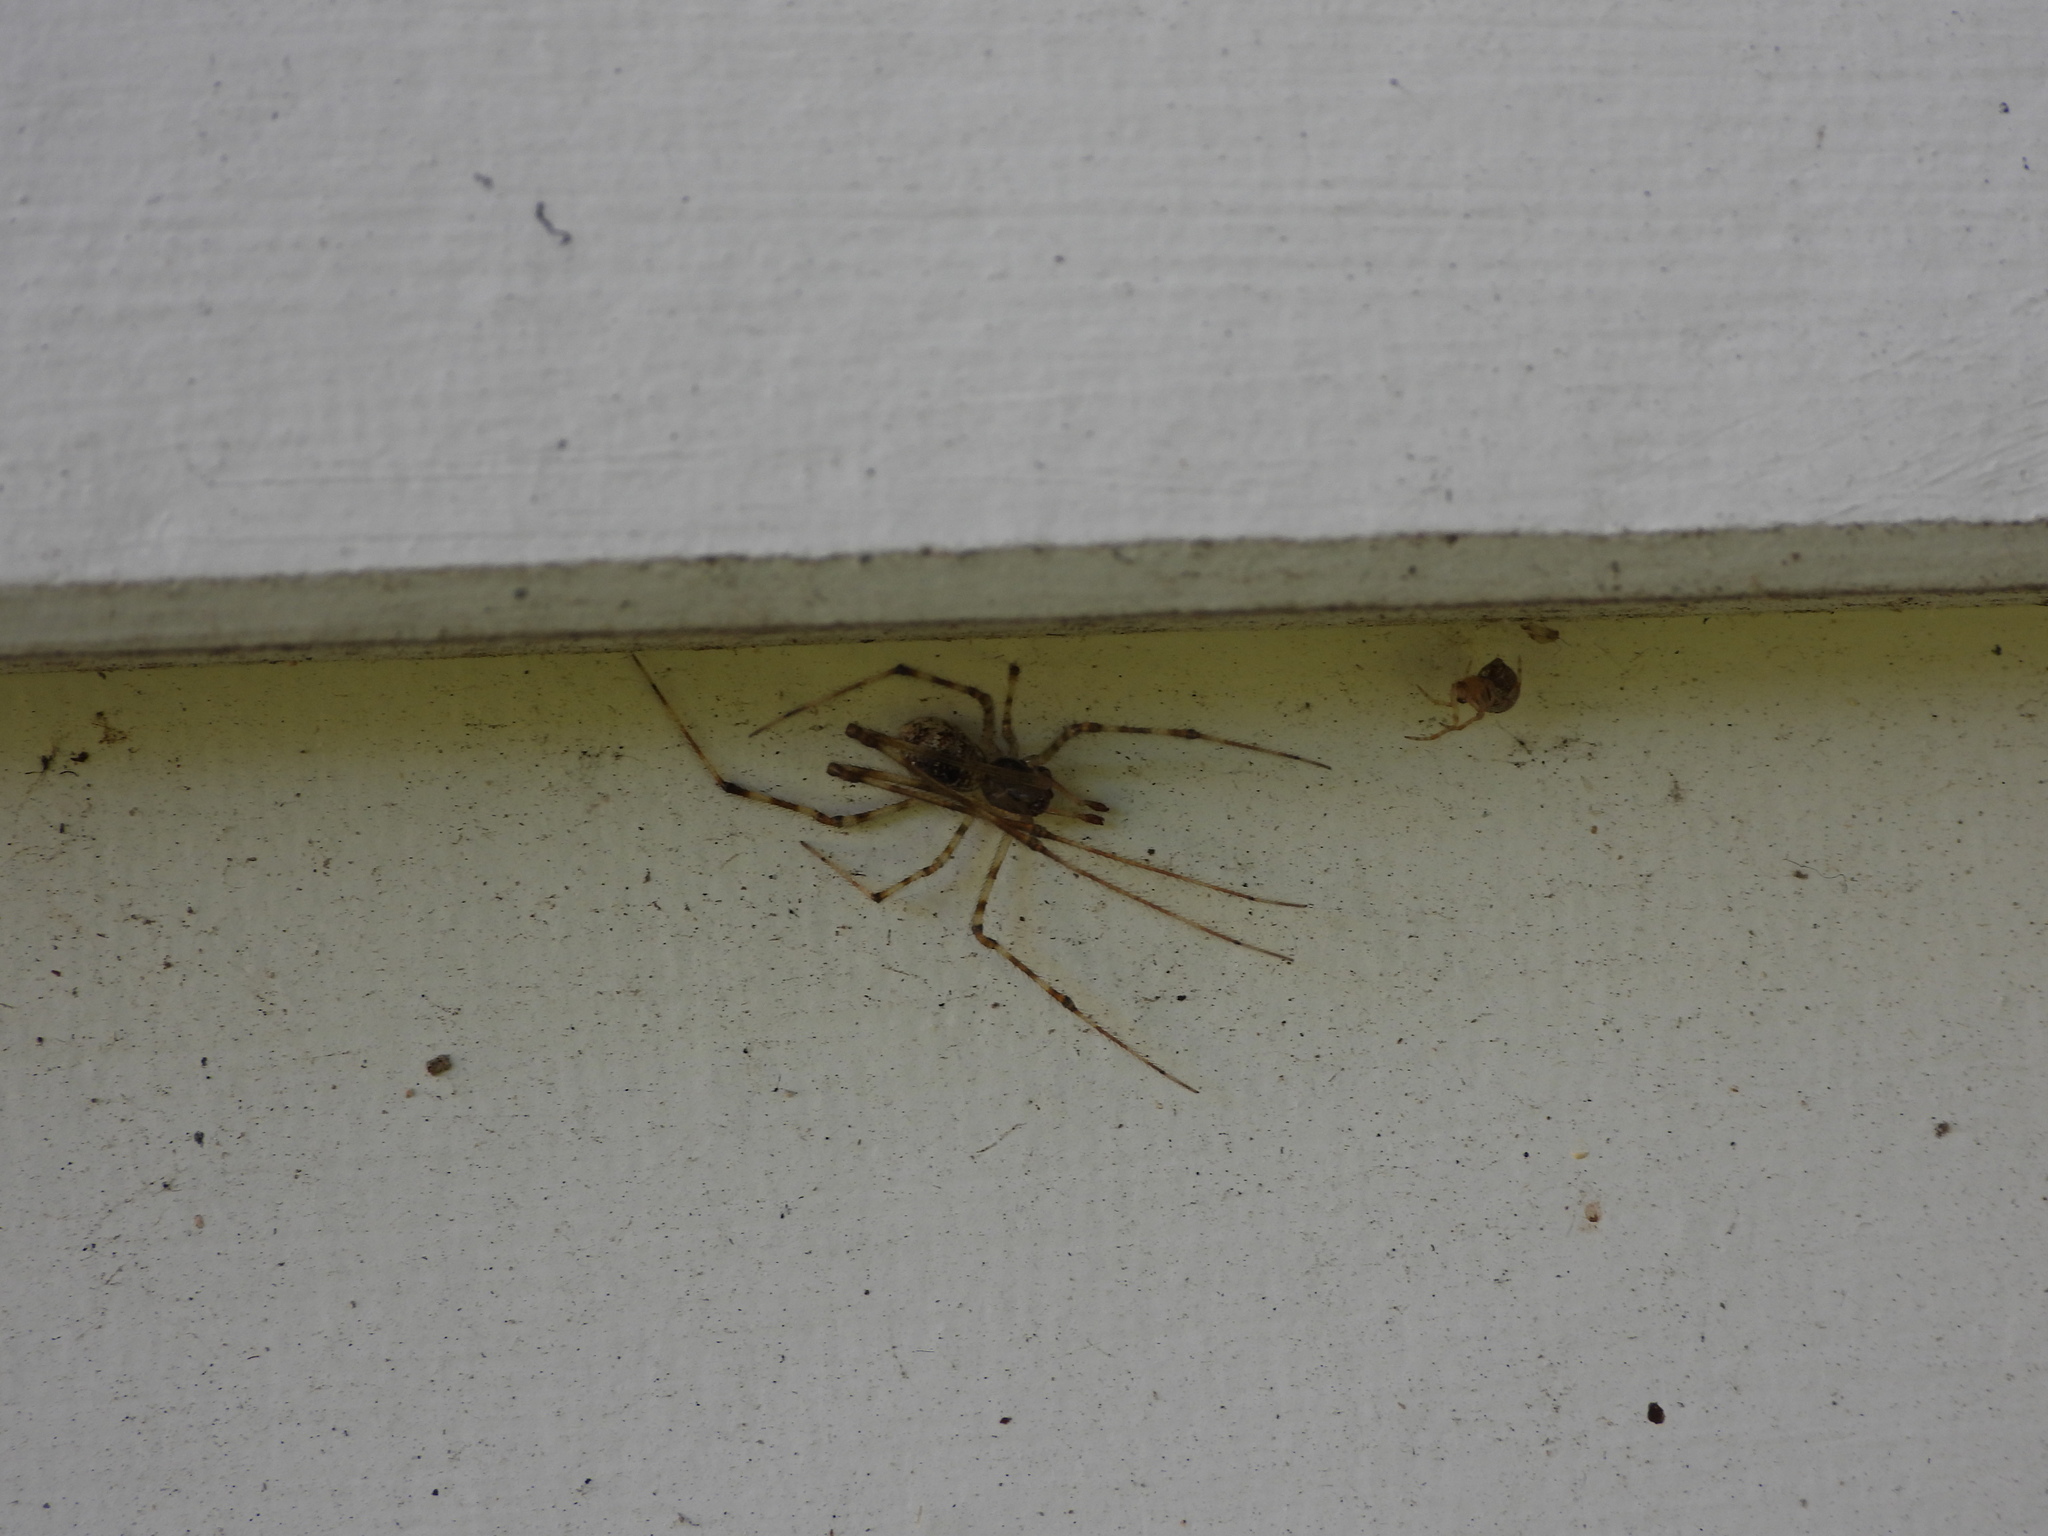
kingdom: Animalia
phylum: Arthropoda
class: Arachnida
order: Araneae
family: Theridiidae
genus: Cryptachaea
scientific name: Cryptachaea gigantipes
